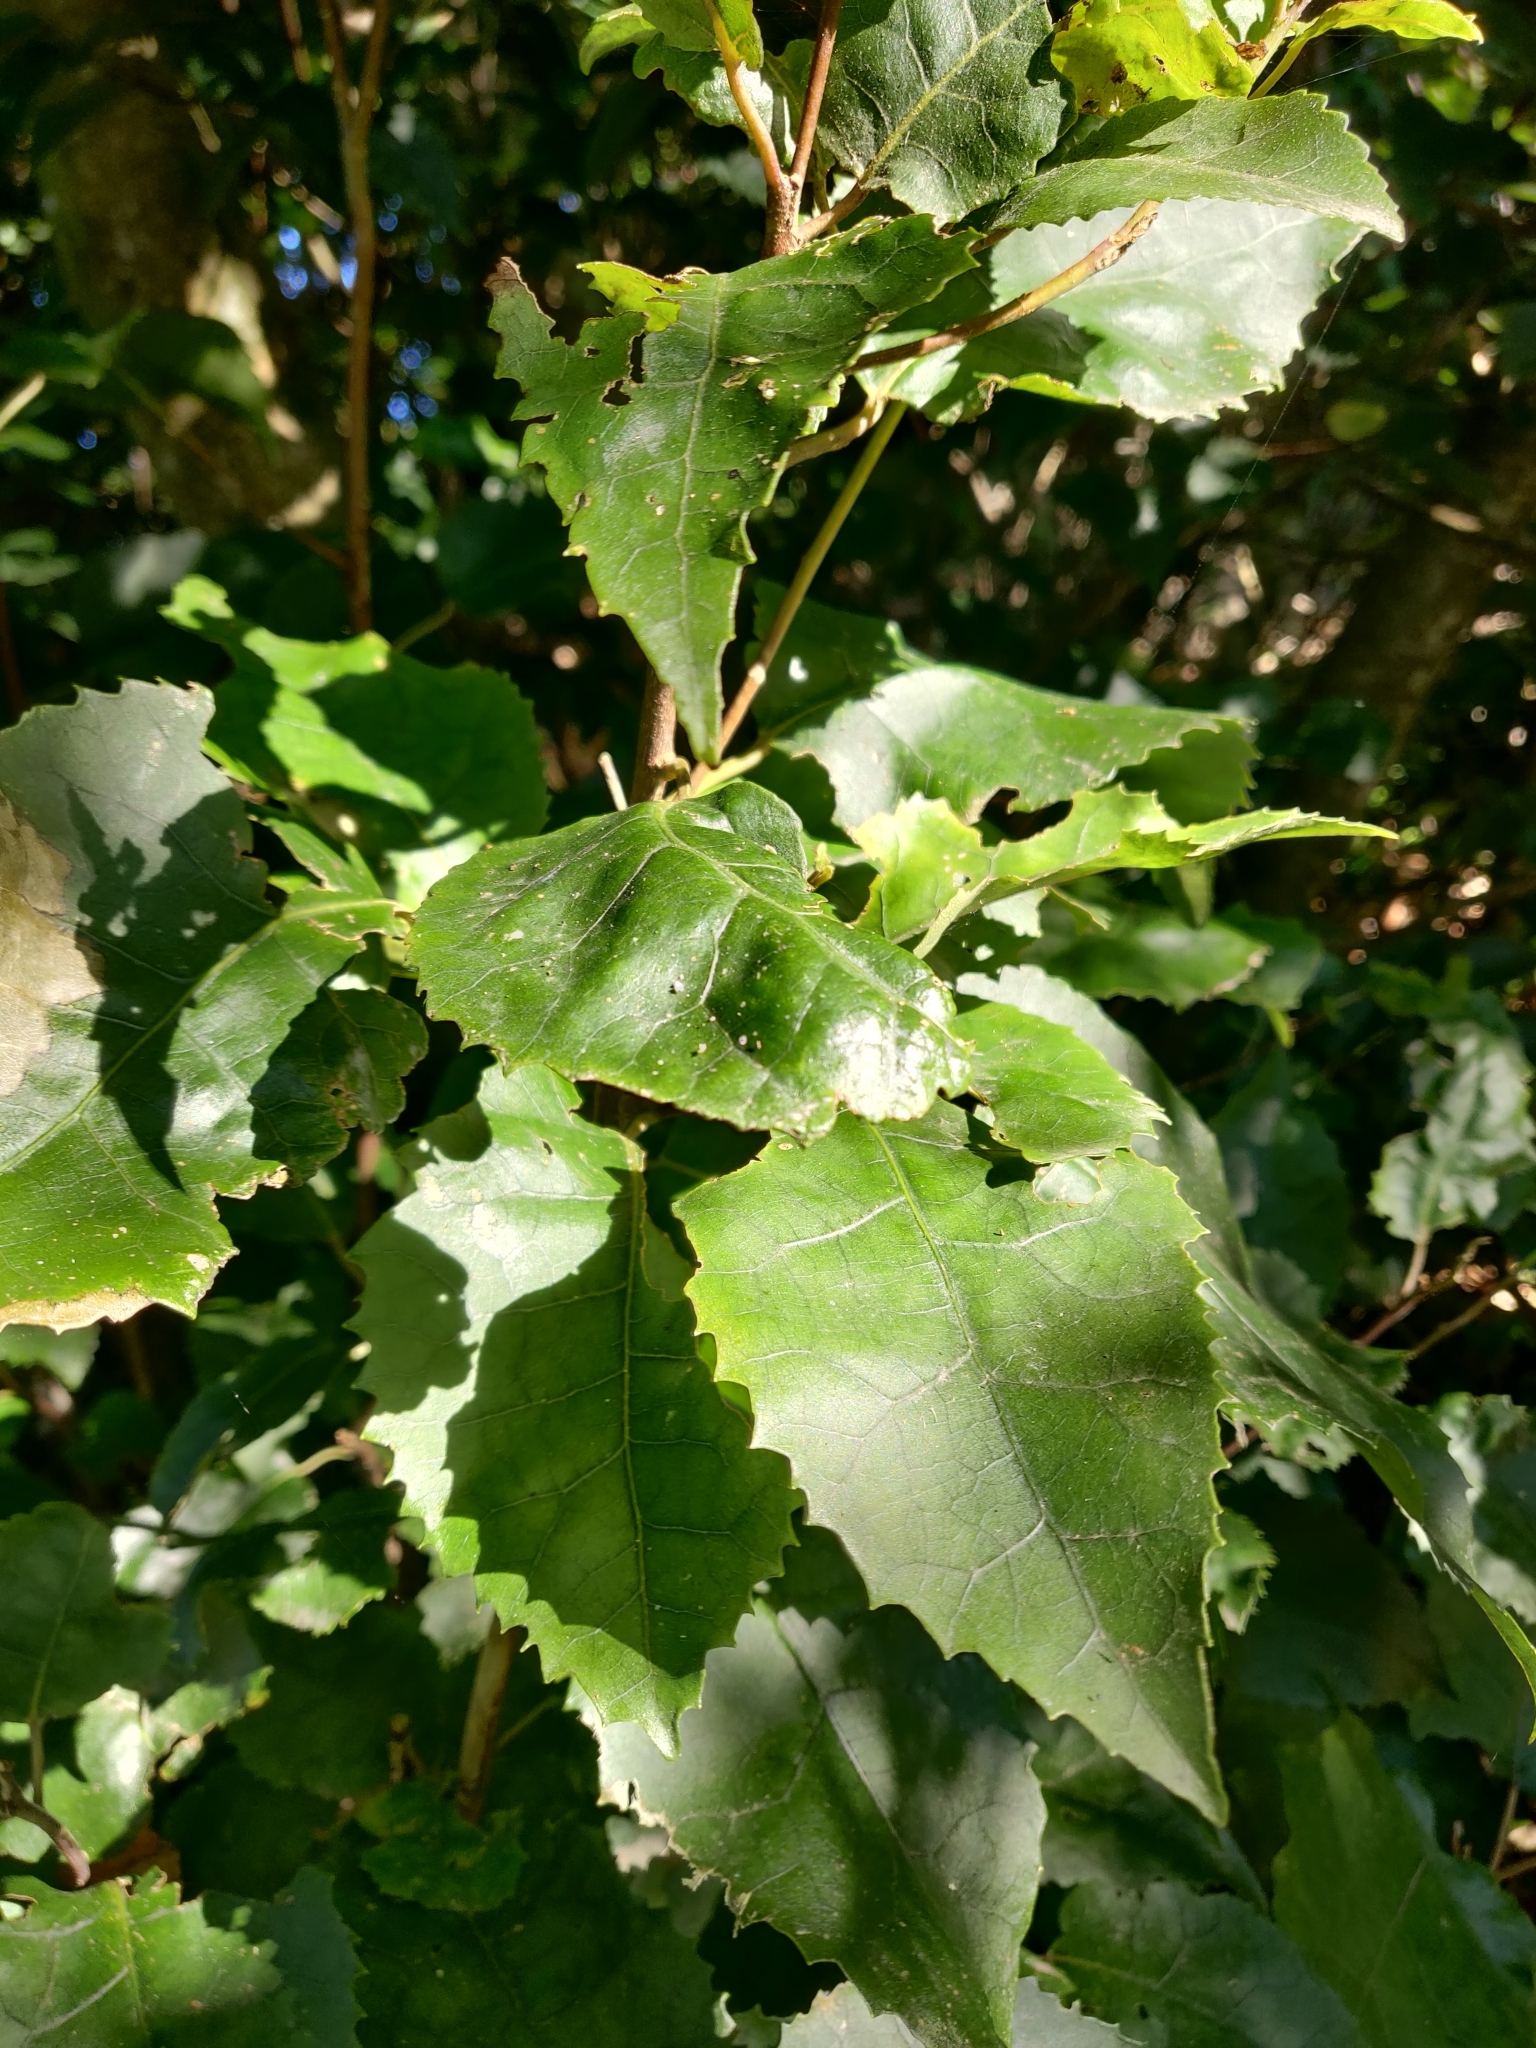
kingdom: Plantae
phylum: Tracheophyta
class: Magnoliopsida
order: Malvales
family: Malvaceae
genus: Hoheria
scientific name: Hoheria populnea
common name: Lacebark
